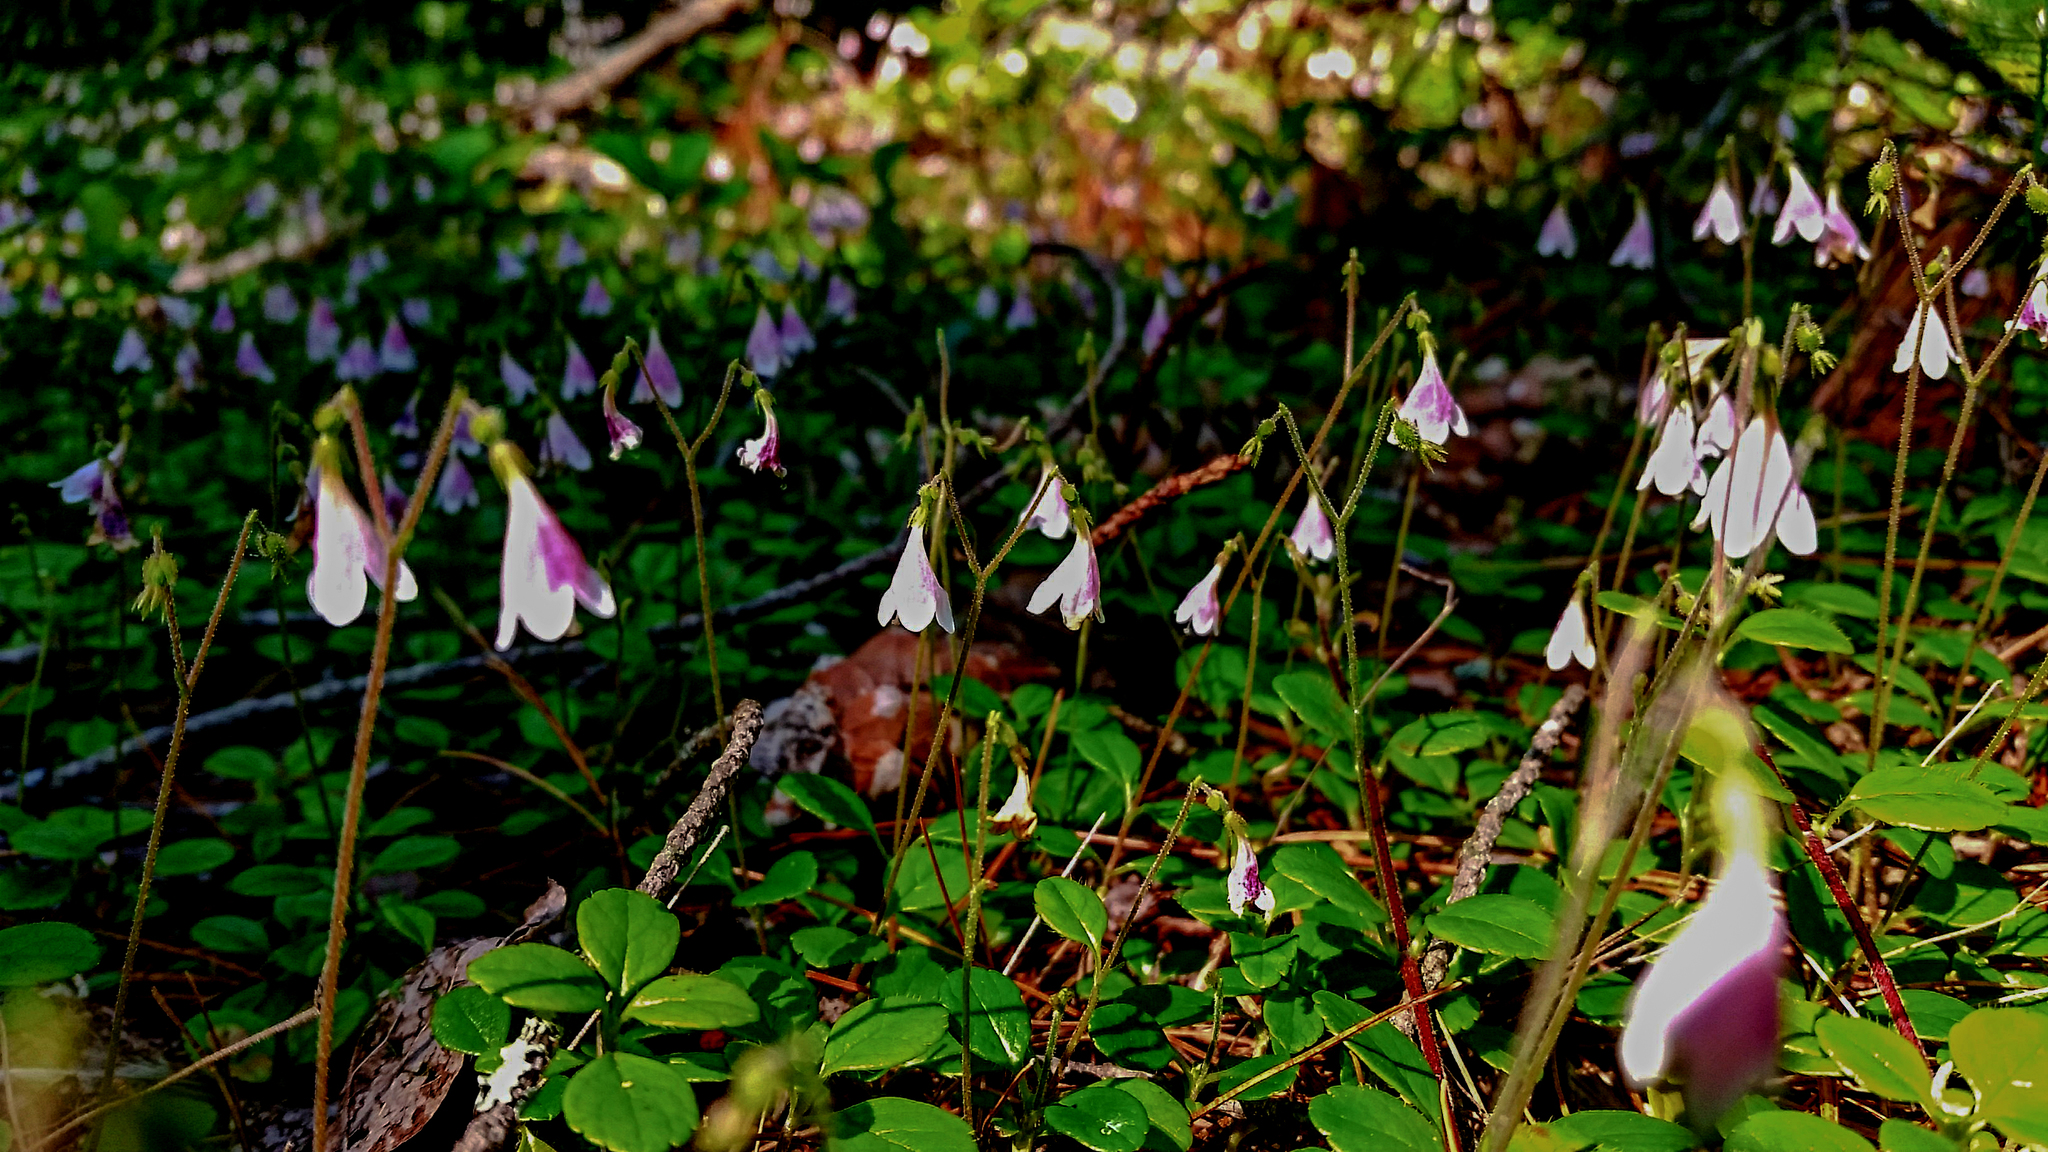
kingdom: Plantae
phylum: Tracheophyta
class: Magnoliopsida
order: Dipsacales
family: Caprifoliaceae
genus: Linnaea
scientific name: Linnaea borealis
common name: Twinflower
